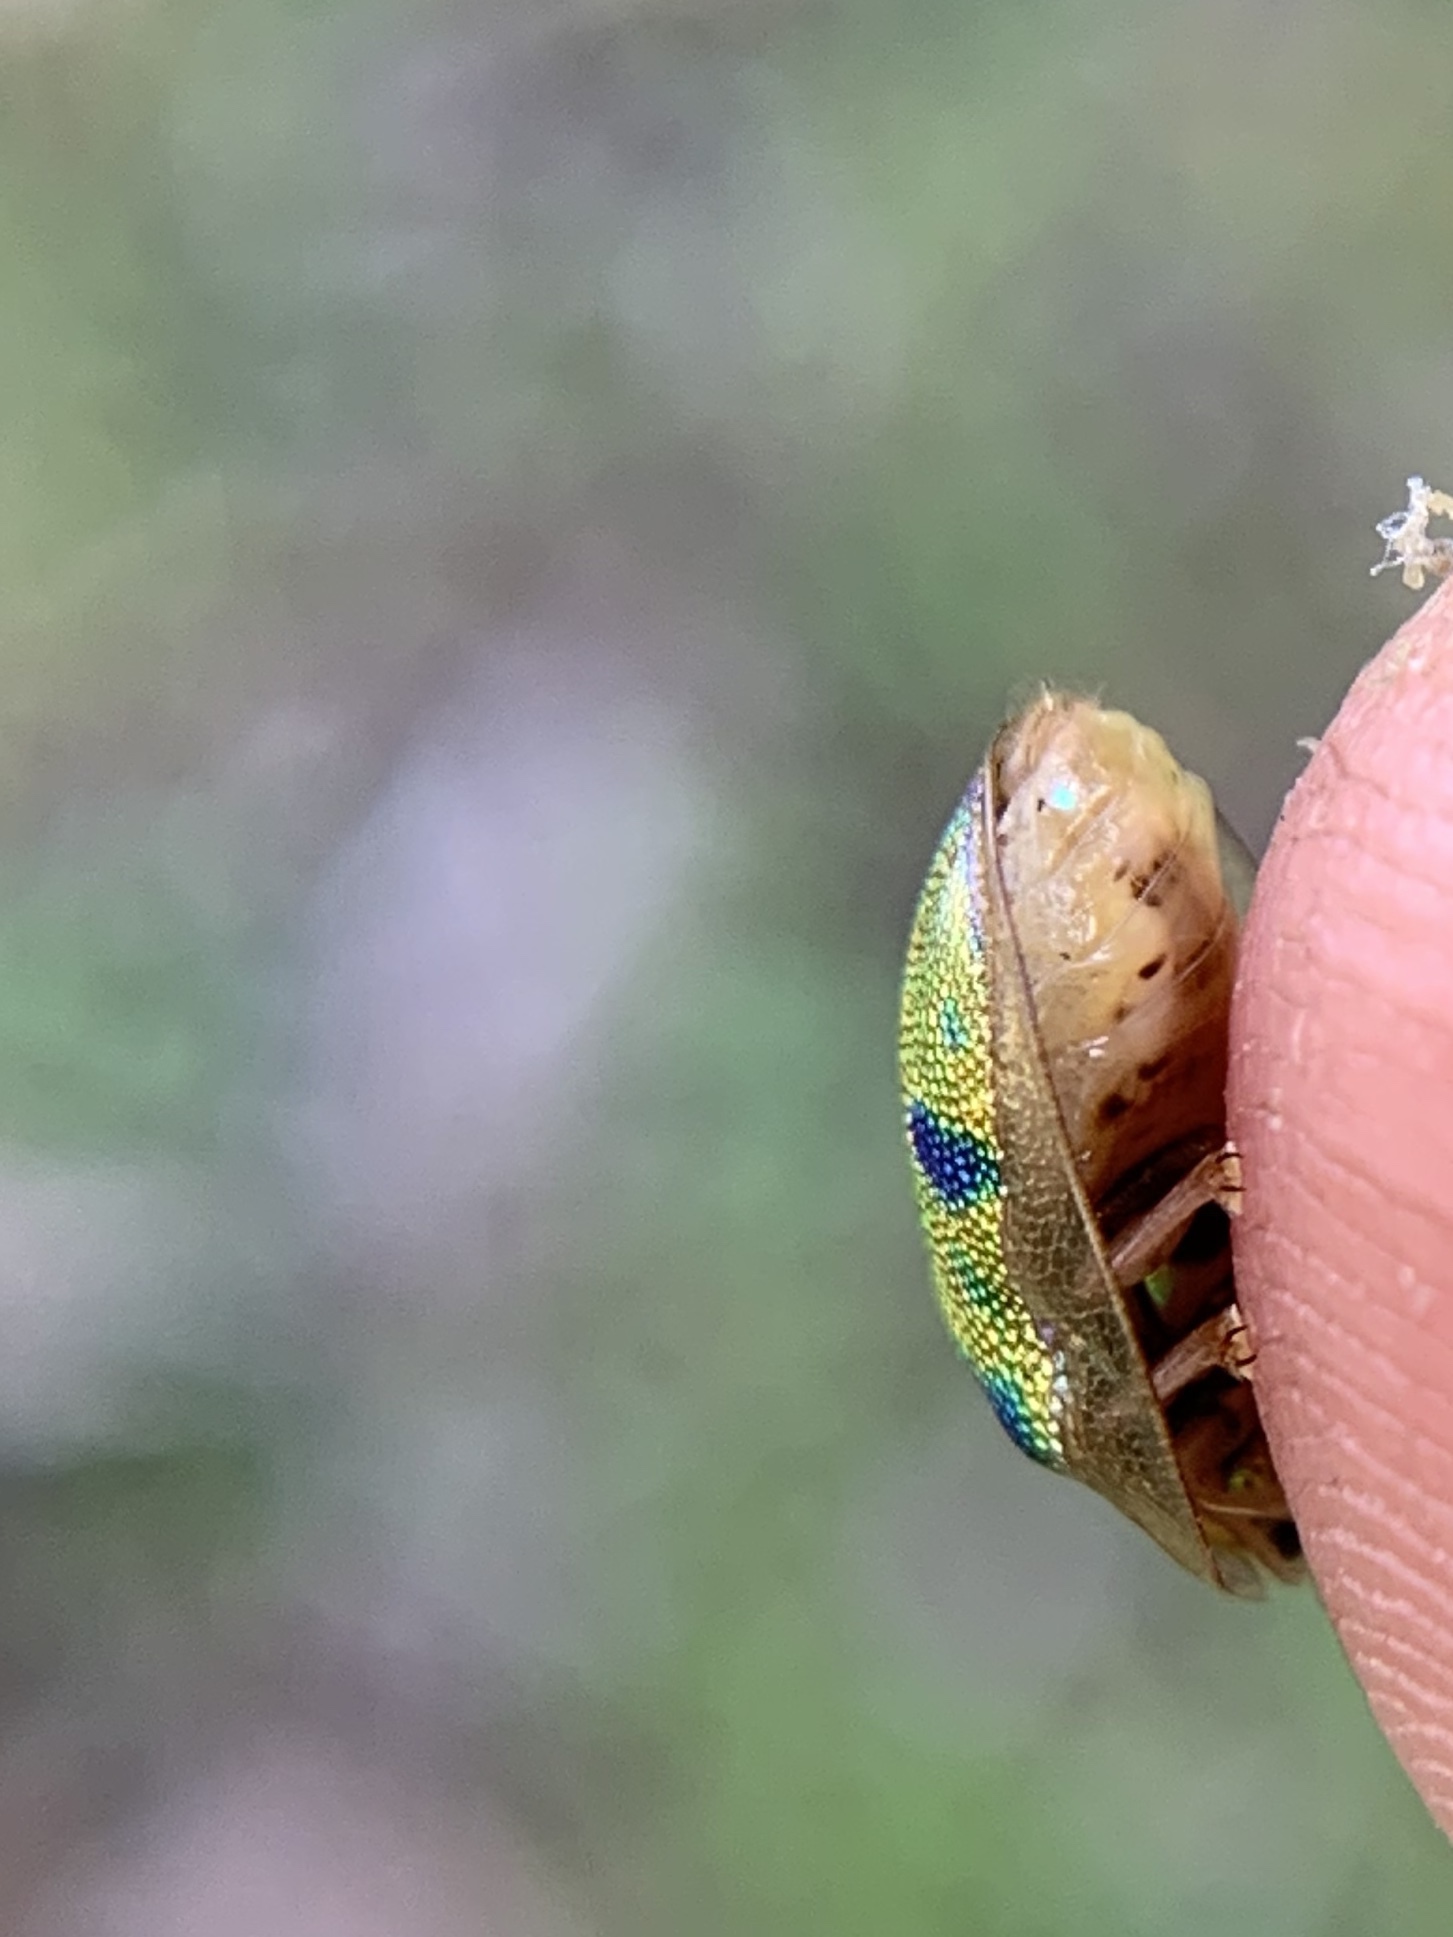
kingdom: Animalia
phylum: Arthropoda
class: Insecta
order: Coleoptera
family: Chrysomelidae
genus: Eurypepla
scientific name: Eurypepla calochroma
